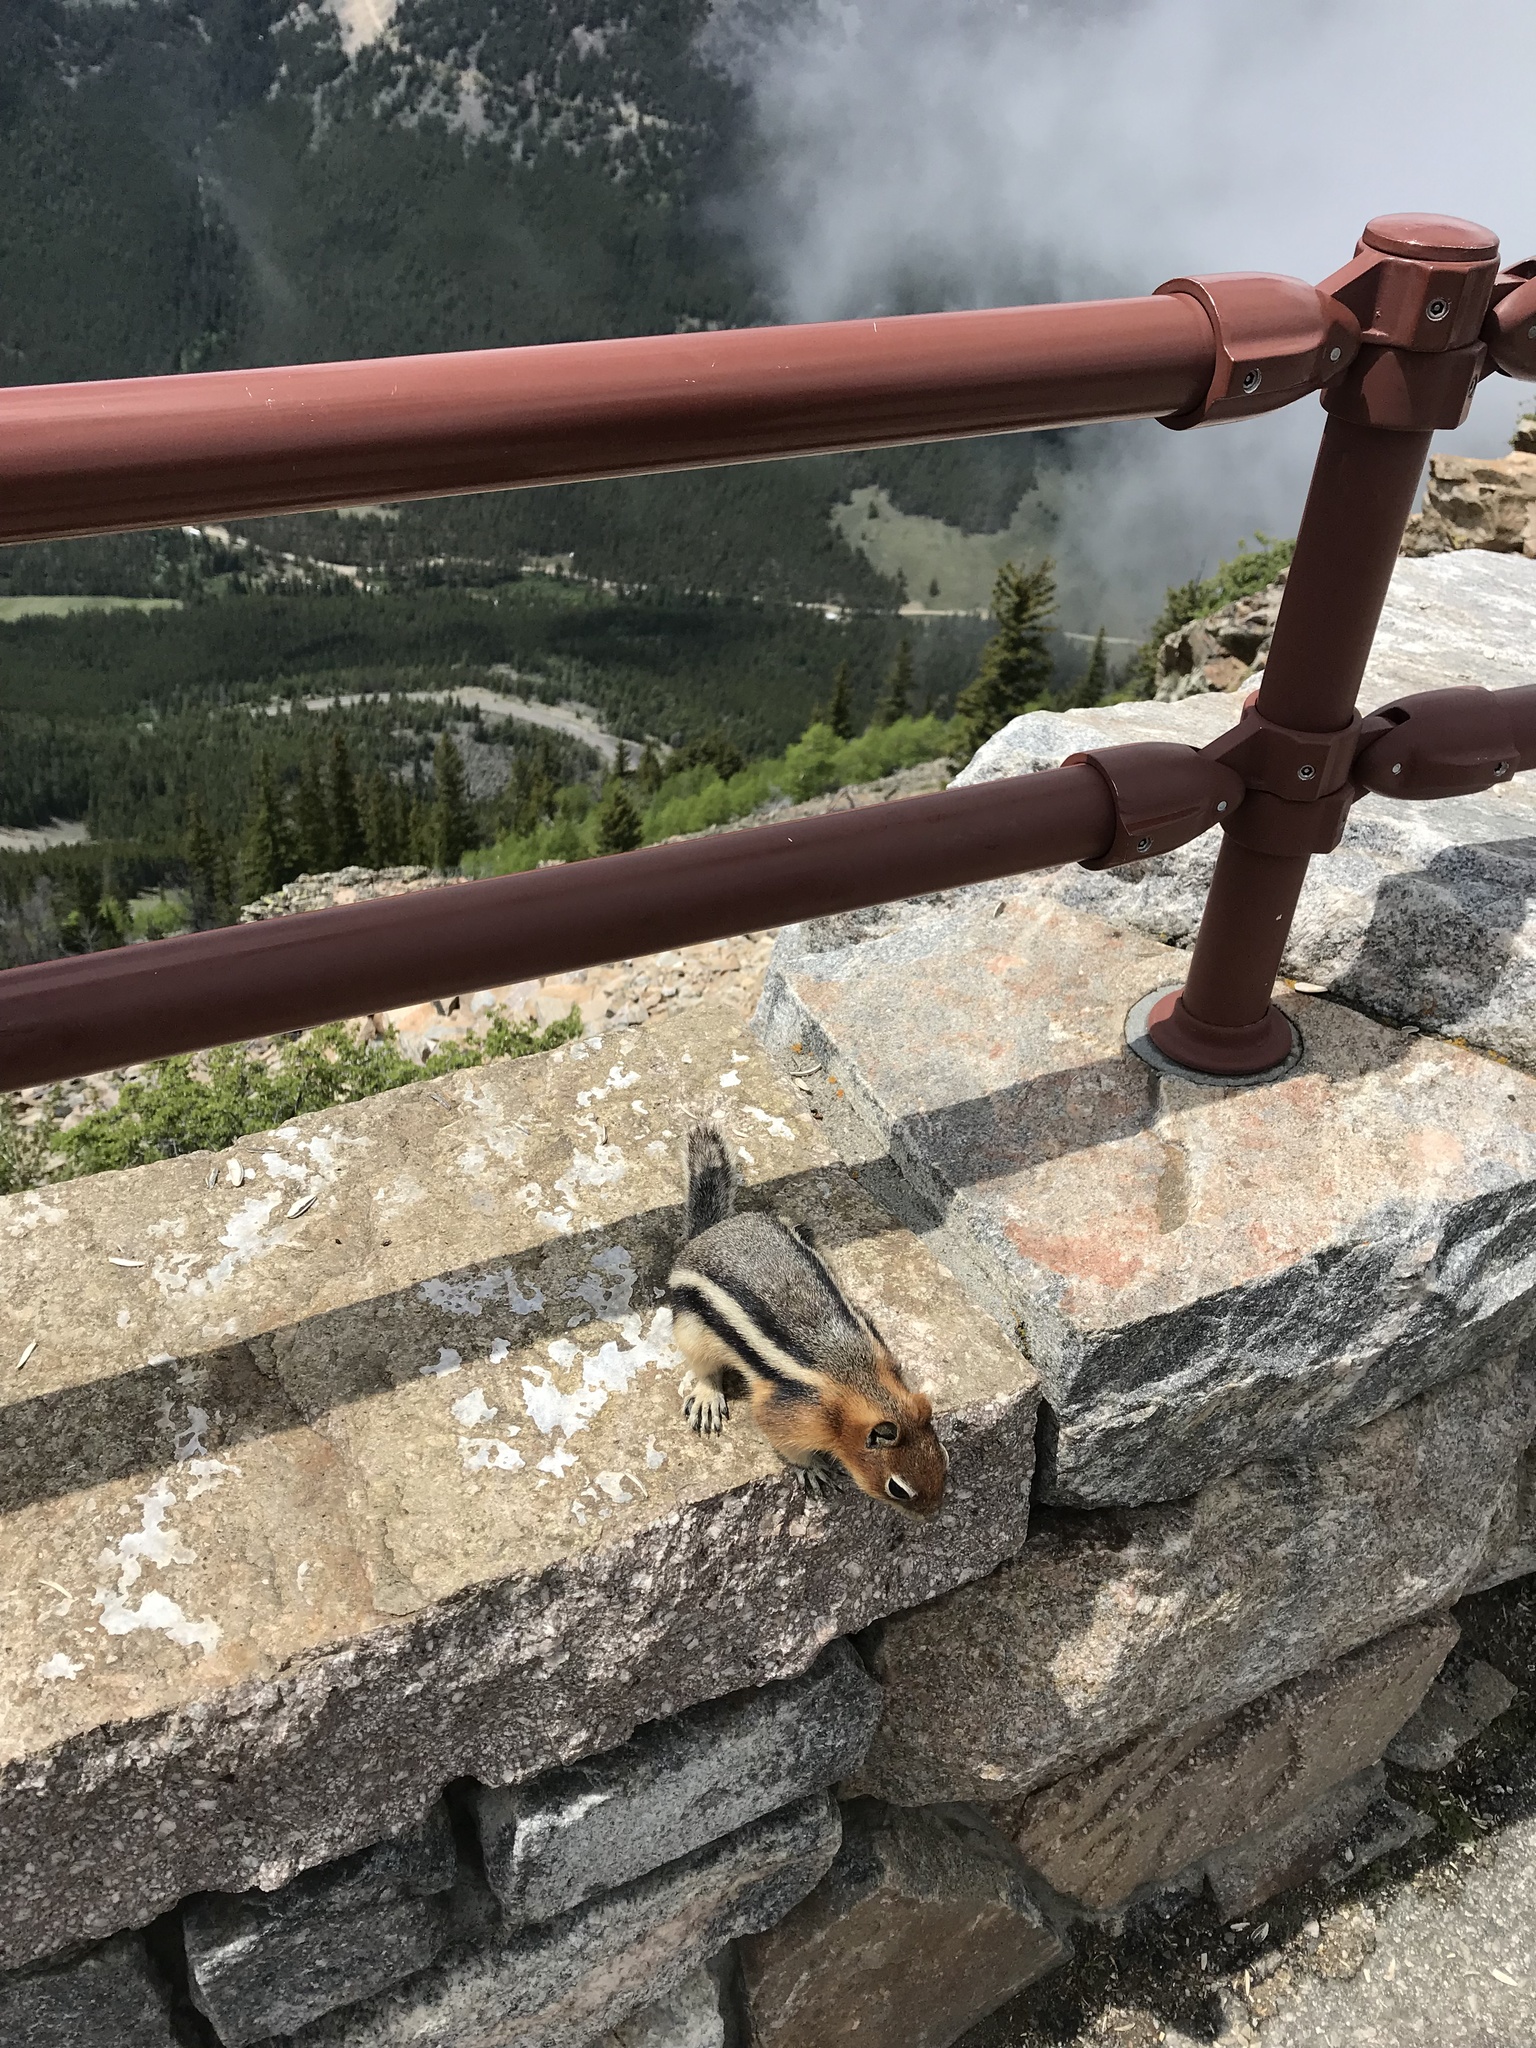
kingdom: Animalia
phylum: Chordata
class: Mammalia
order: Rodentia
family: Sciuridae
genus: Callospermophilus
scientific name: Callospermophilus lateralis
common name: Golden-mantled ground squirrel
